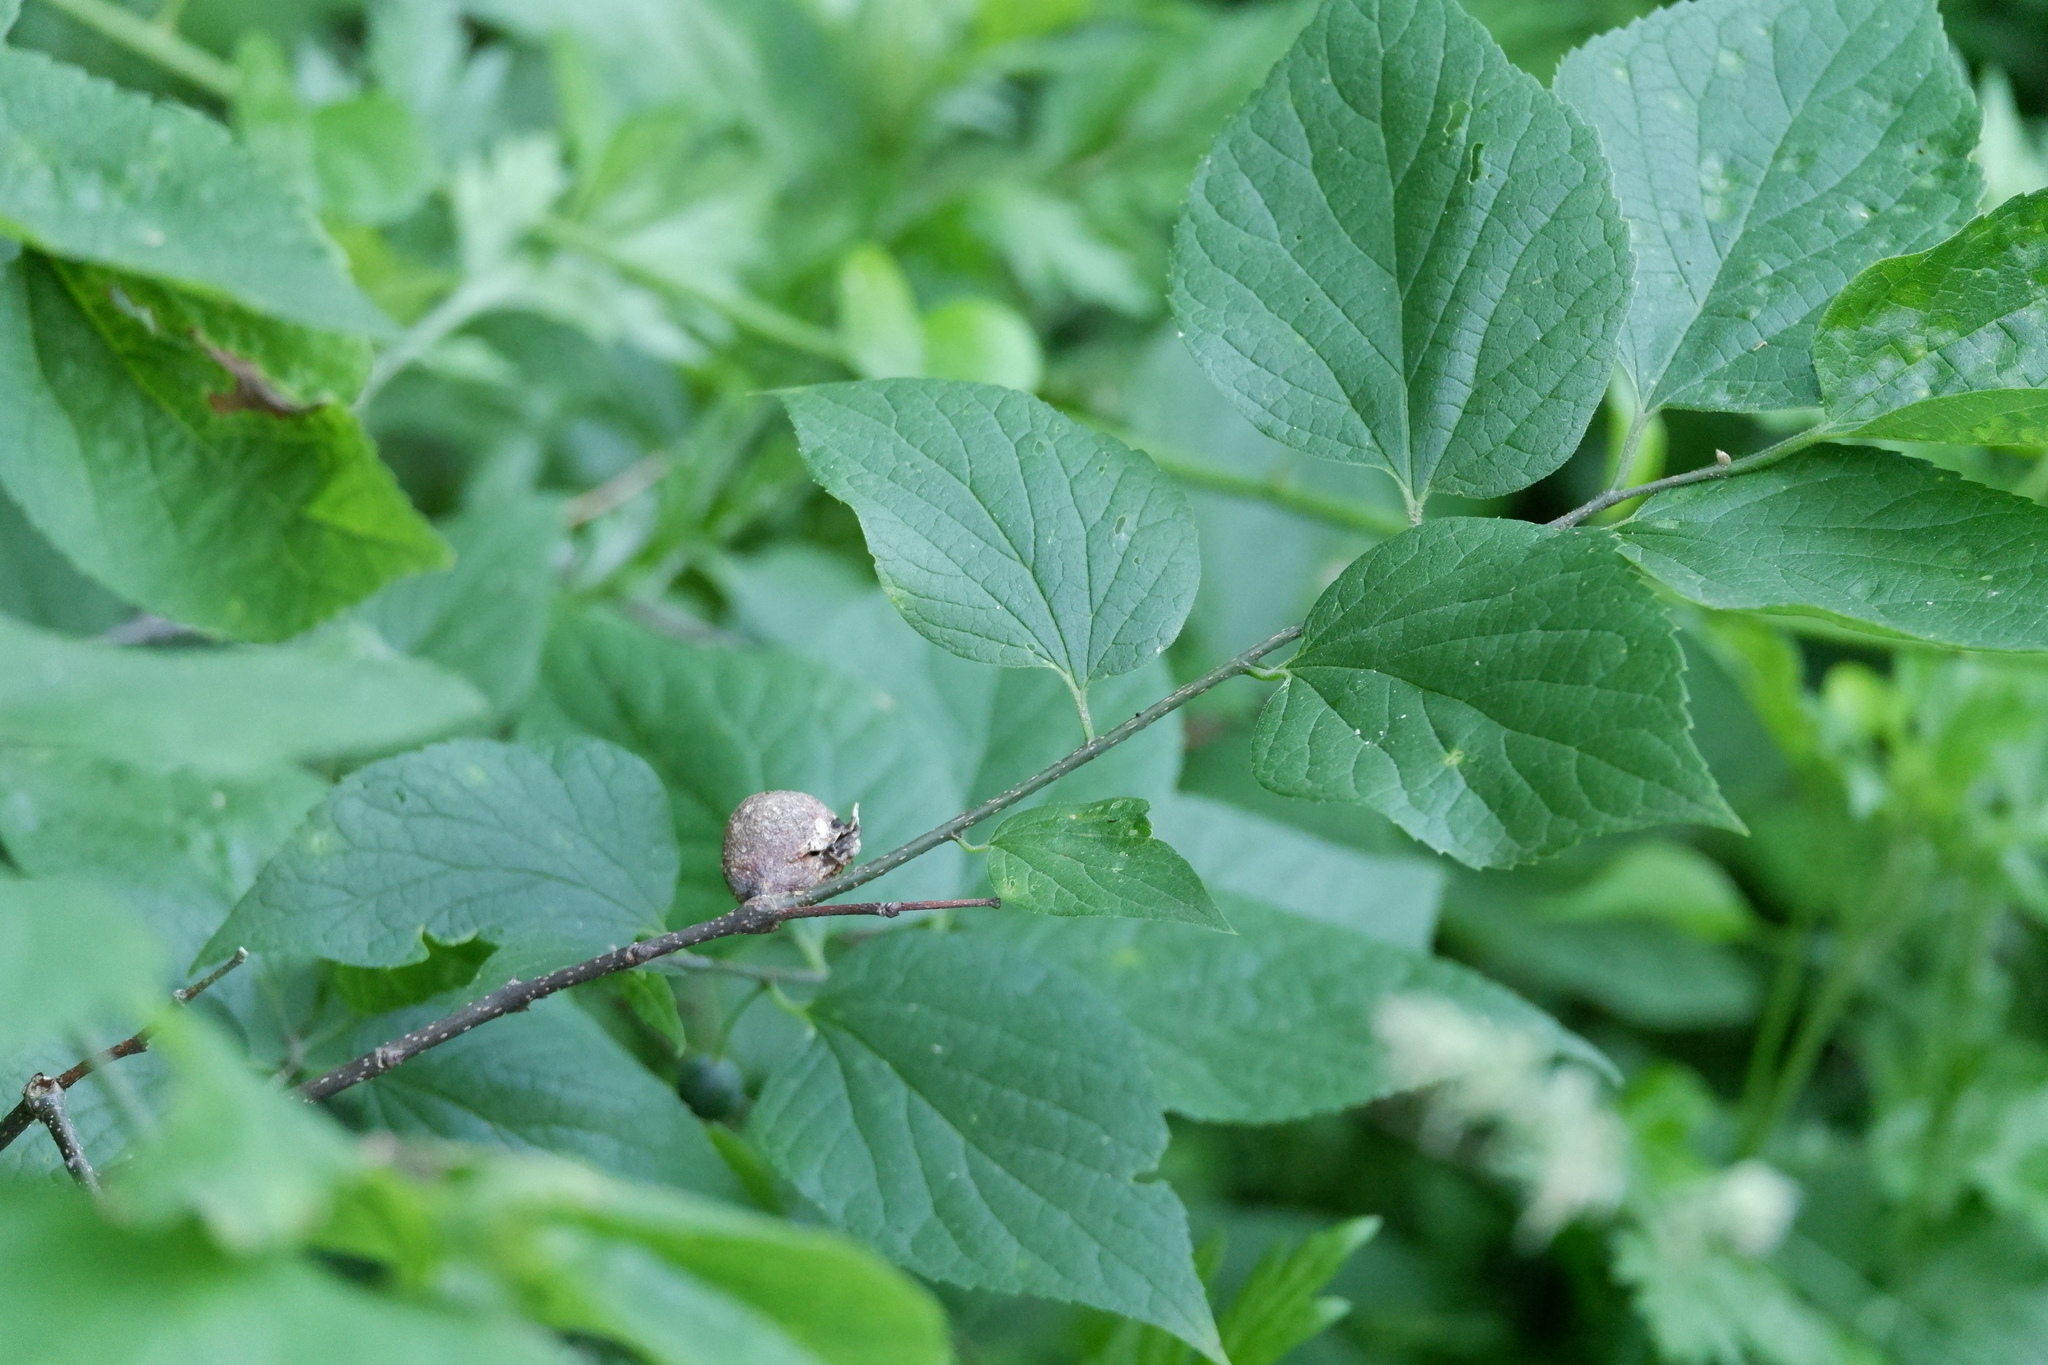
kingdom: Animalia
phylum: Arthropoda
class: Insecta
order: Hemiptera
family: Aphalaridae
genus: Pachypsylla
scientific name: Pachypsylla venusta
